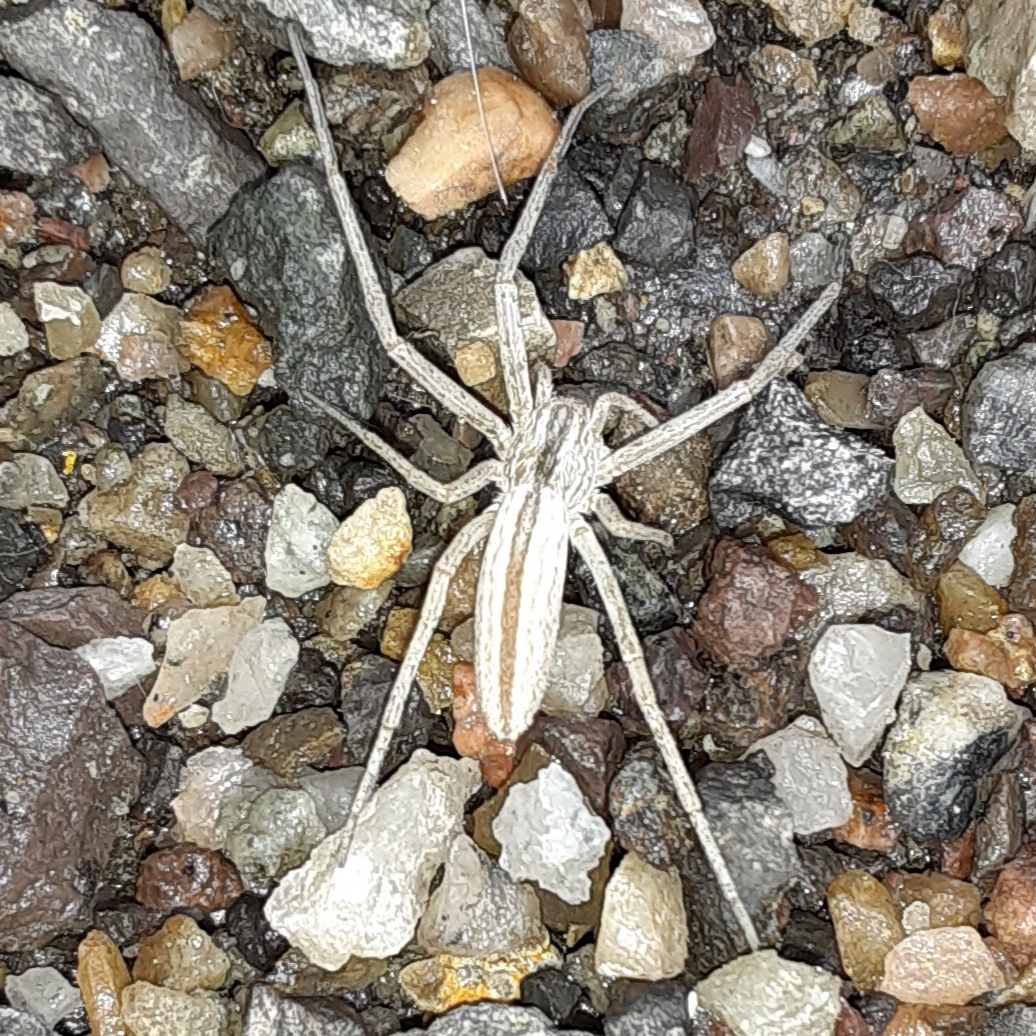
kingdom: Animalia
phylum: Arthropoda
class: Arachnida
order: Araneae
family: Philodromidae
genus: Tibellus
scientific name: Tibellus oblongus
